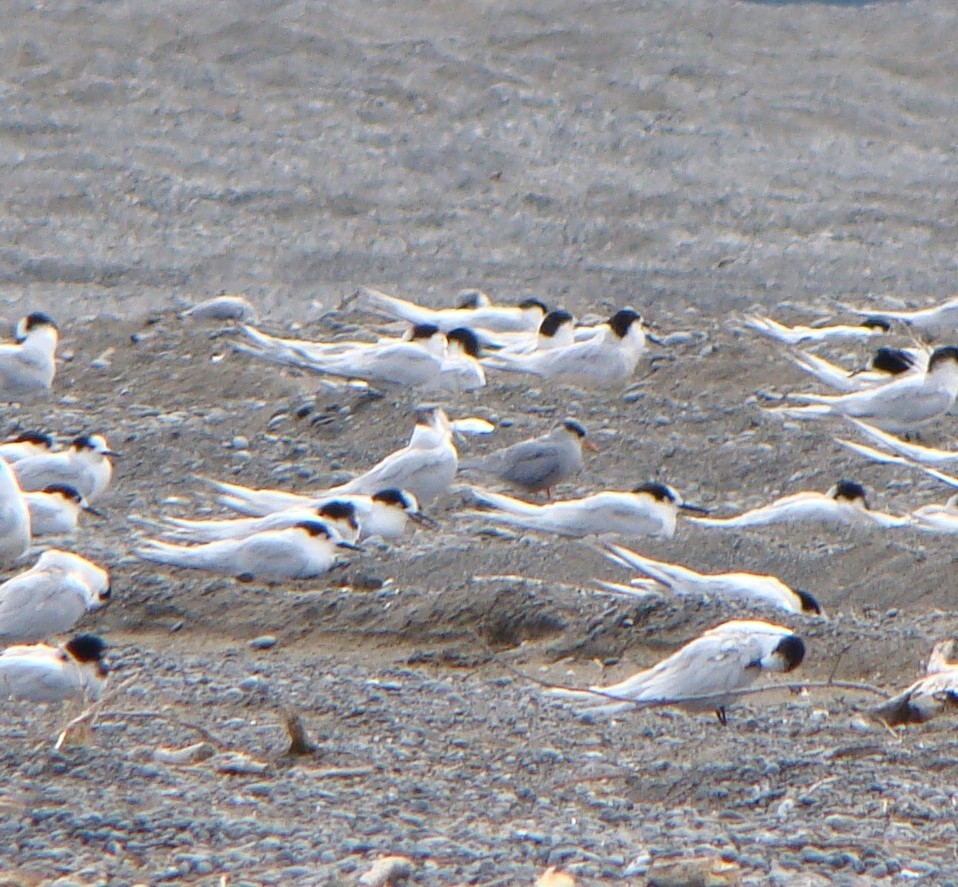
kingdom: Animalia
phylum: Chordata
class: Aves
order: Charadriiformes
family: Laridae
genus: Chlidonias
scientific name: Chlidonias albostriatus
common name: Black-fronted tern
